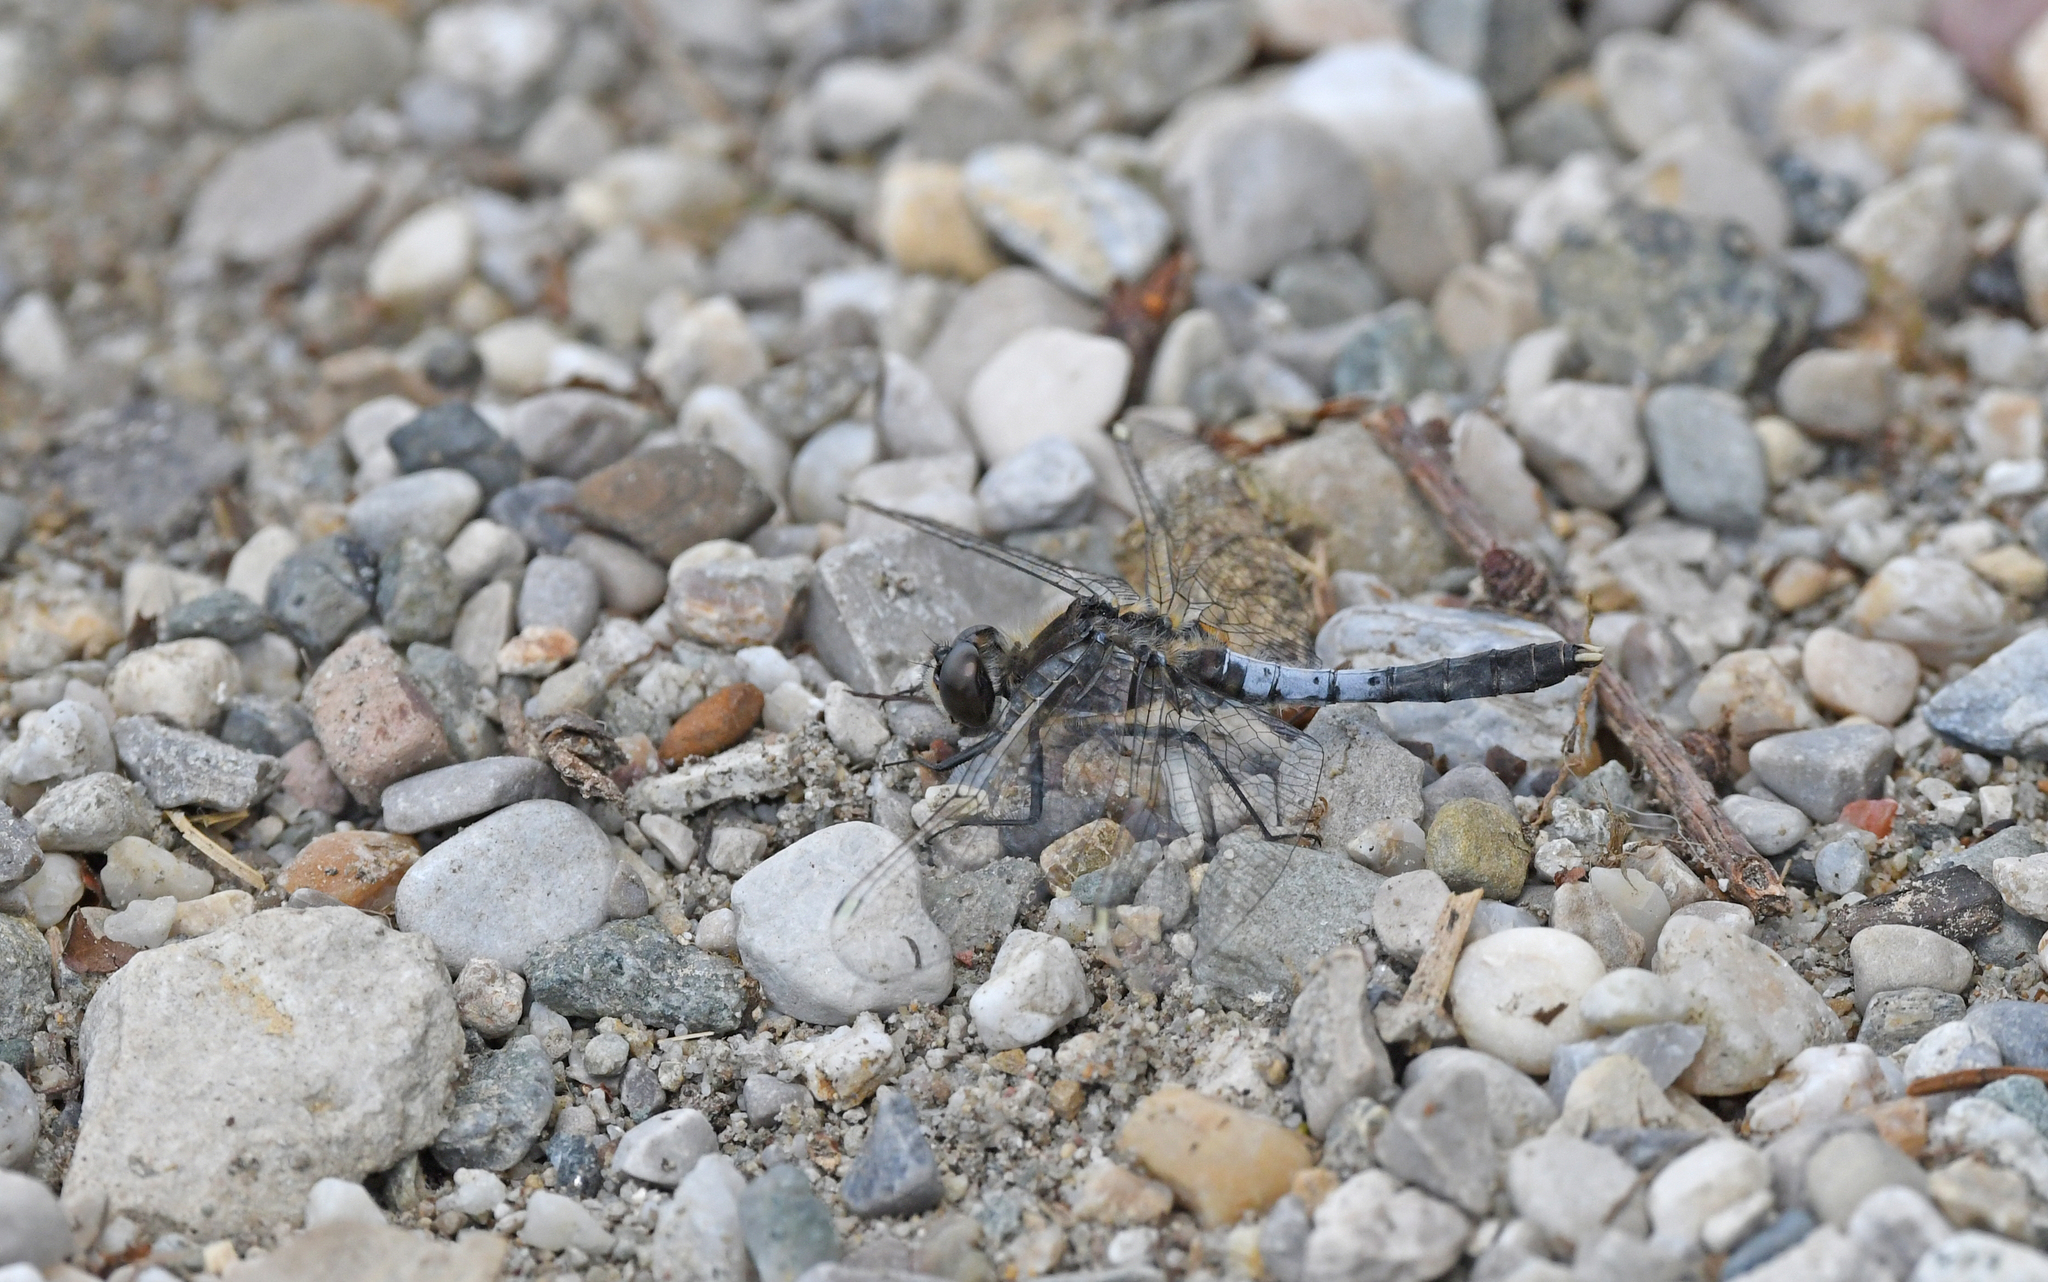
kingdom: Animalia
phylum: Arthropoda
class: Insecta
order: Odonata
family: Libellulidae
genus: Leucorrhinia
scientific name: Leucorrhinia caudalis
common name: Lilypad whiteface
